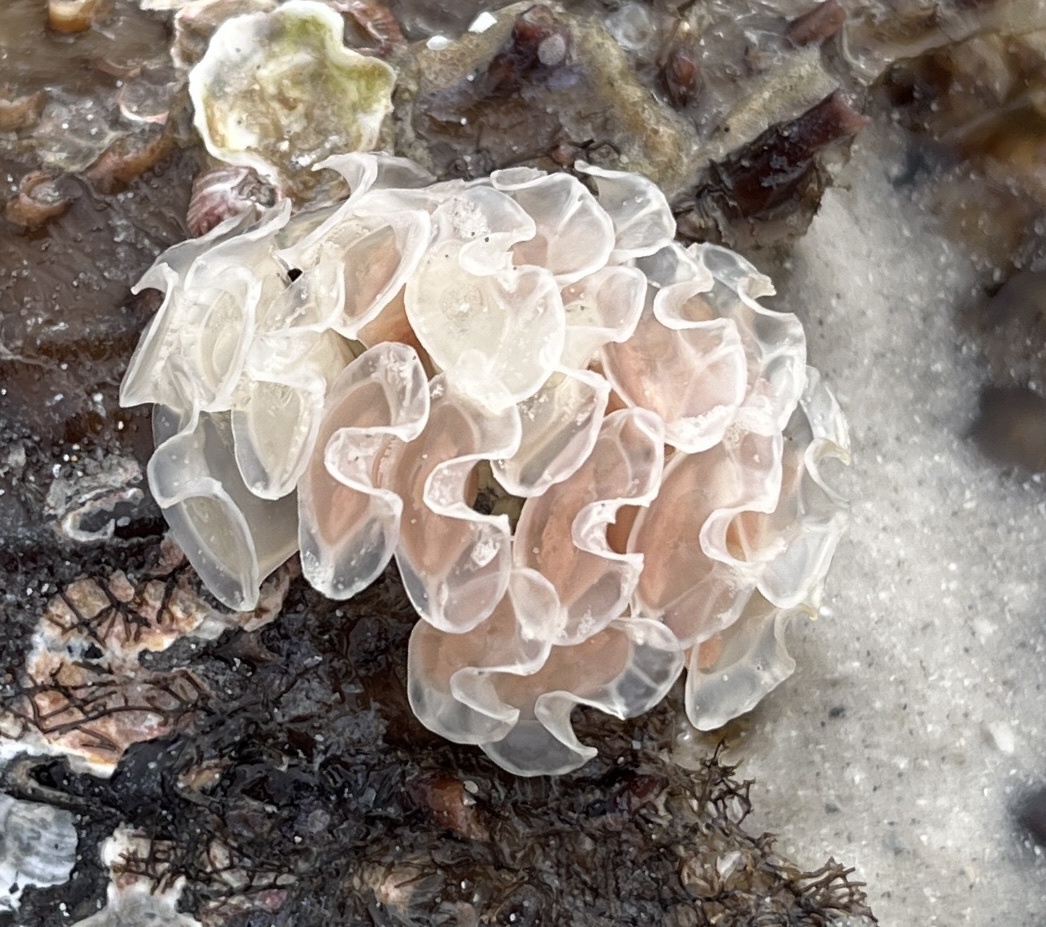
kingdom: Animalia
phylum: Mollusca
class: Gastropoda
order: Neogastropoda
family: Fasciolariidae
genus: Cinctura
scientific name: Cinctura hunteria
